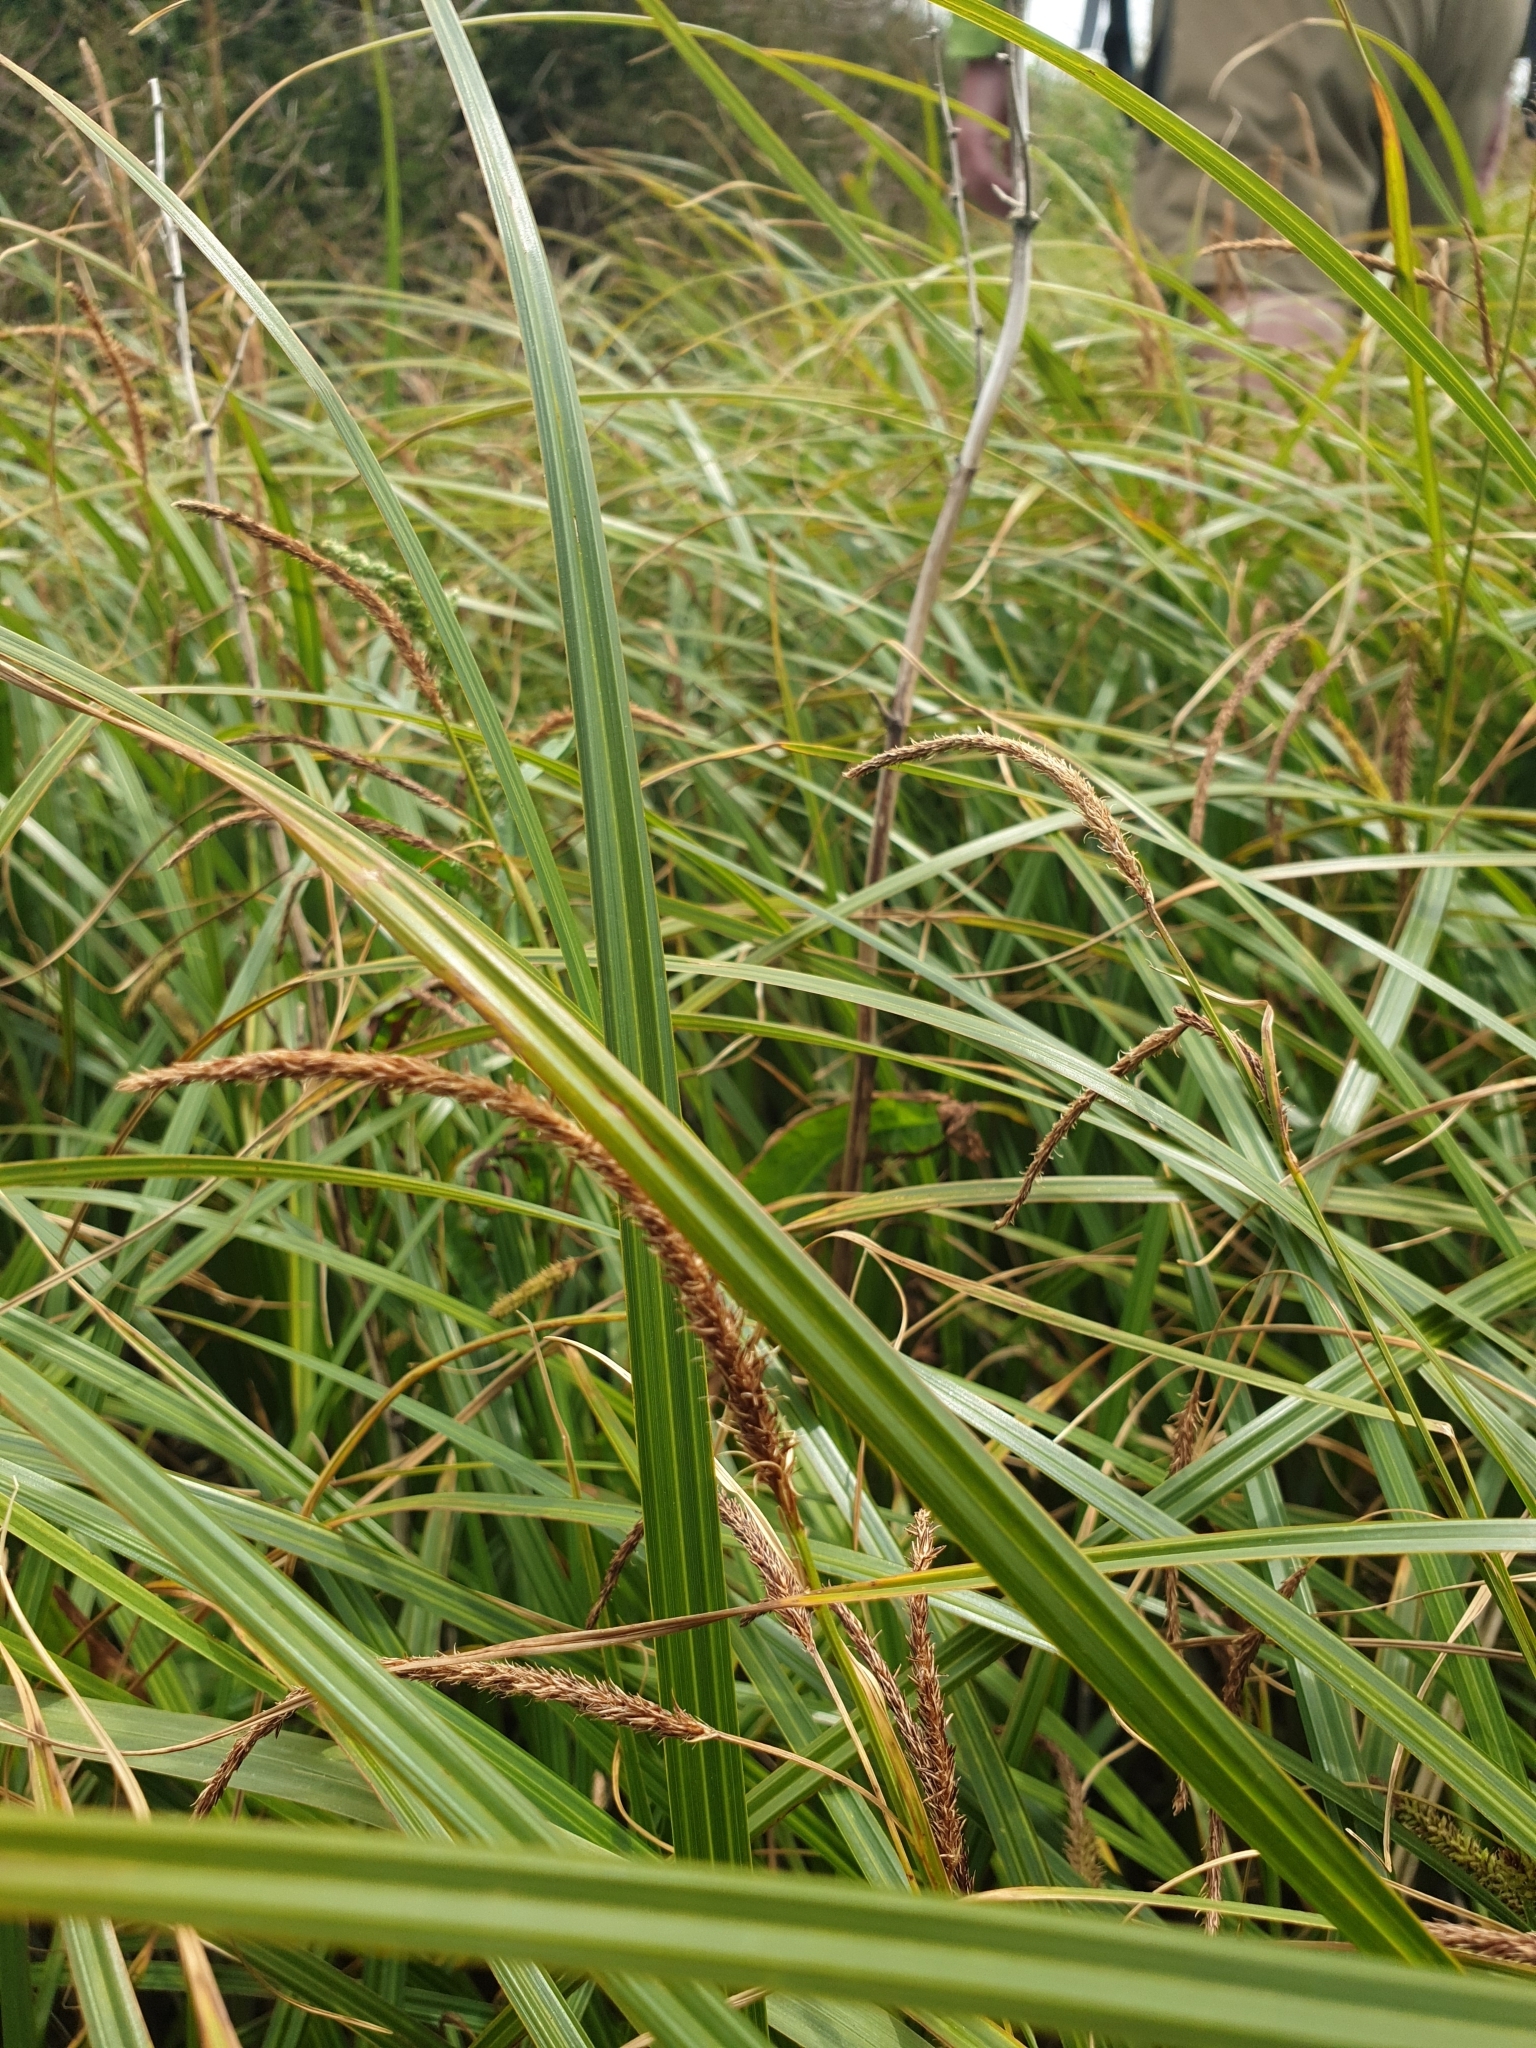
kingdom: Plantae
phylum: Tracheophyta
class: Liliopsida
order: Poales
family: Cyperaceae
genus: Carex
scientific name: Carex geminata
